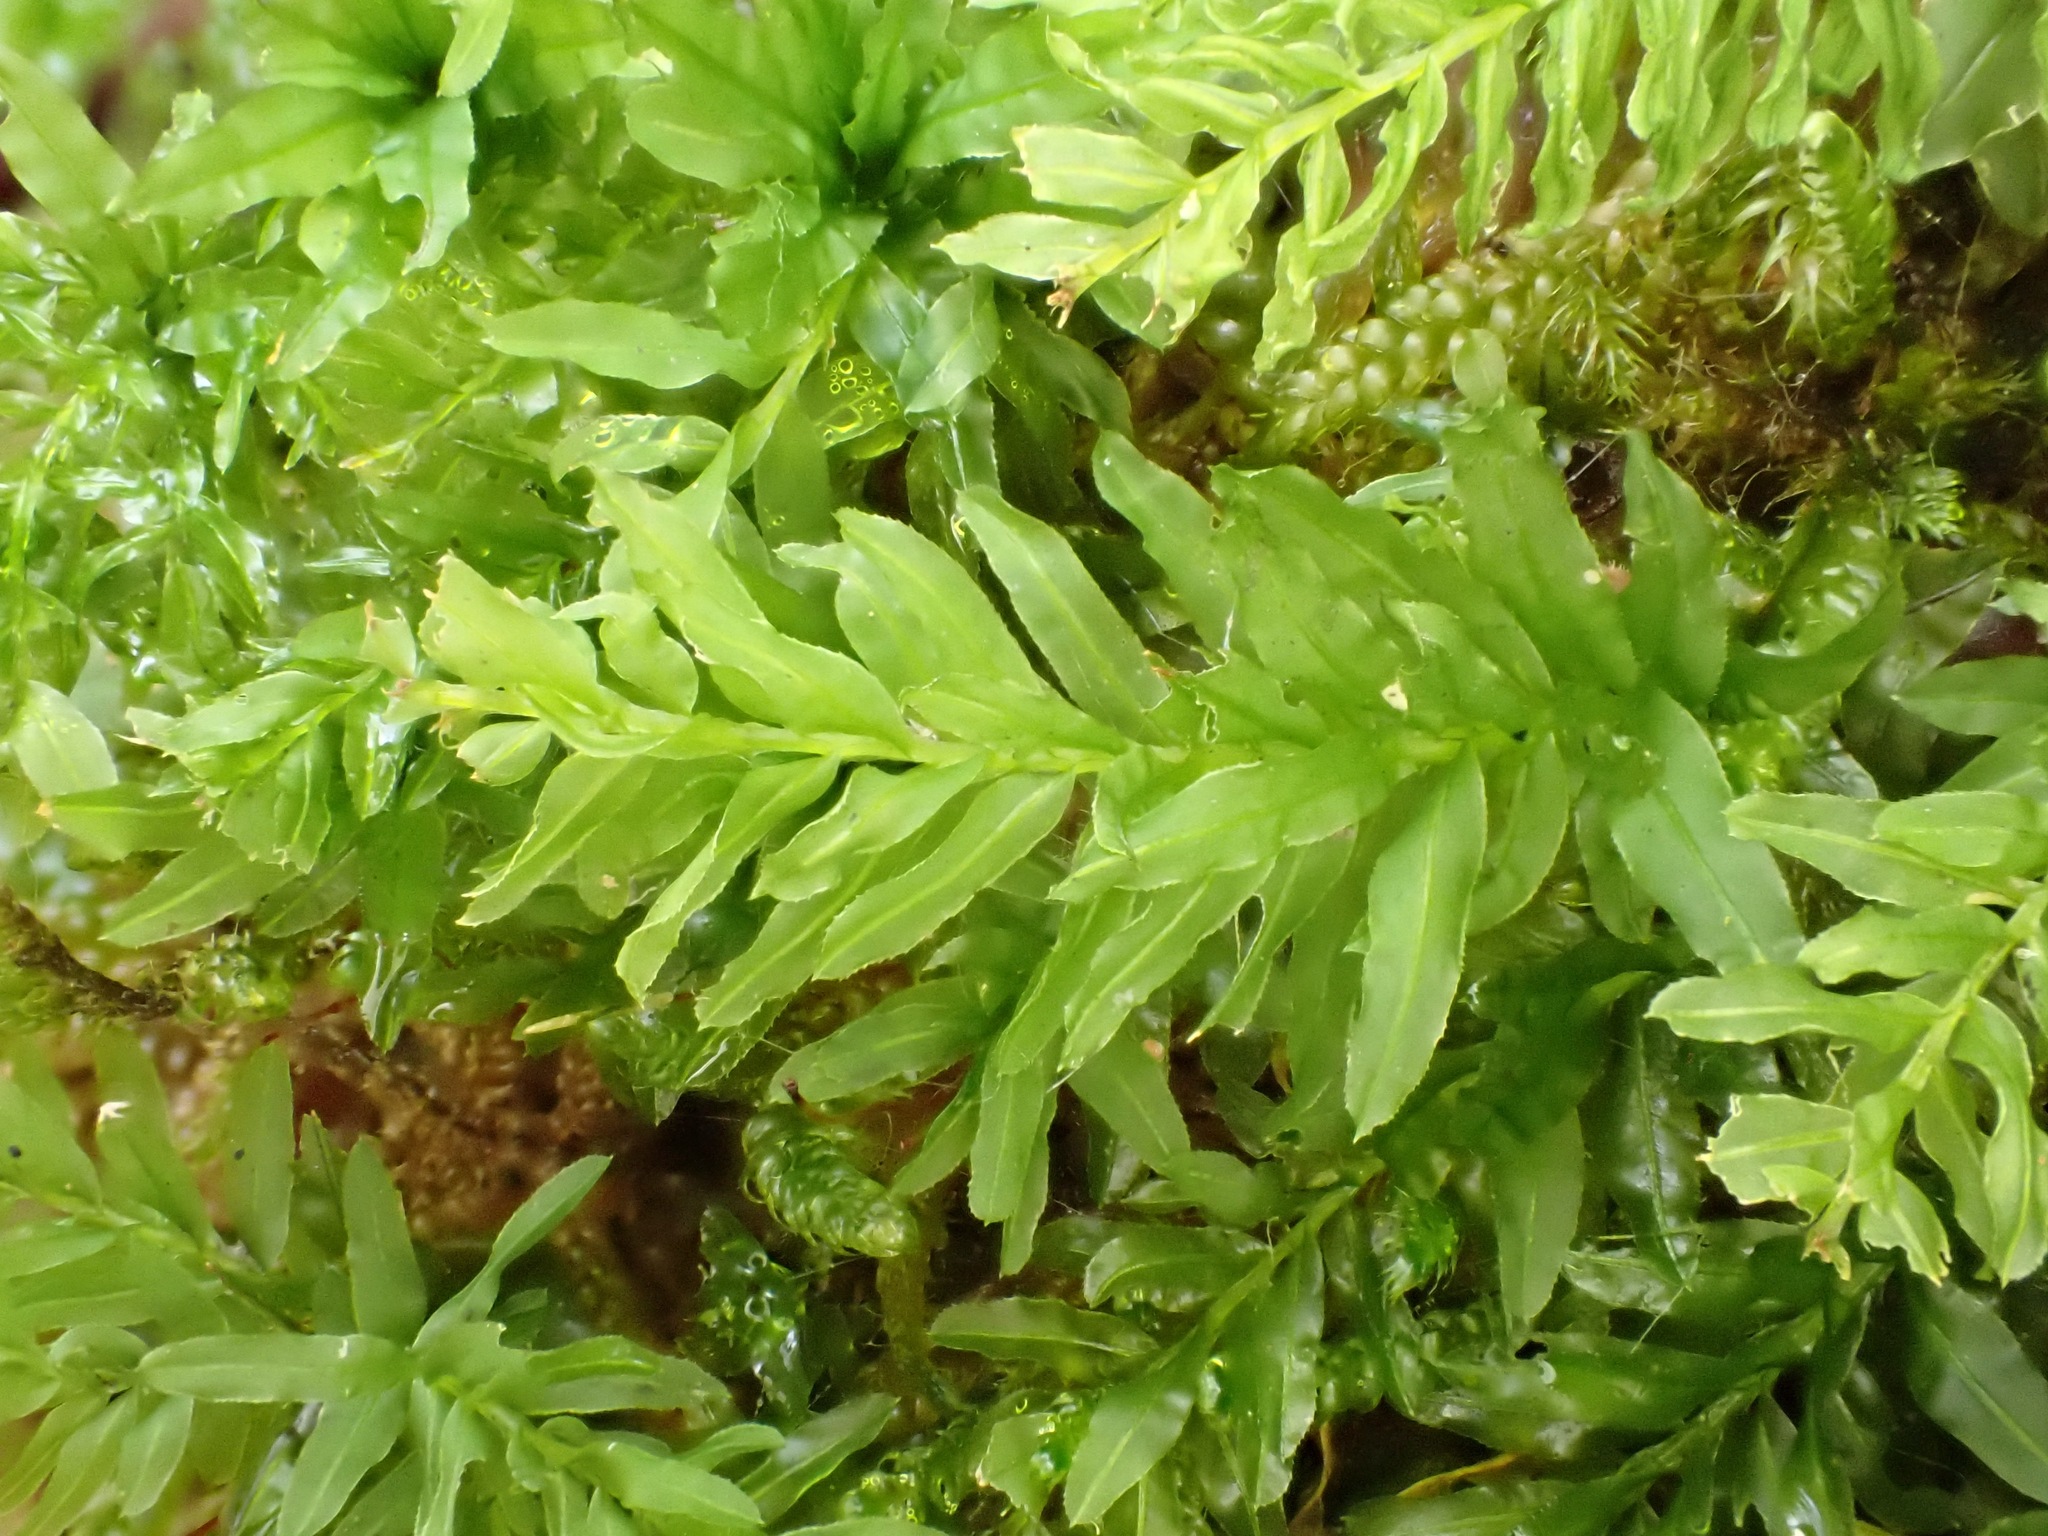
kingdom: Plantae
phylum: Bryophyta
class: Bryopsida
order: Bryales
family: Mniaceae
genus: Plagiomnium
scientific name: Plagiomnium undulatum
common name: Hart's-tongue thyme-moss
